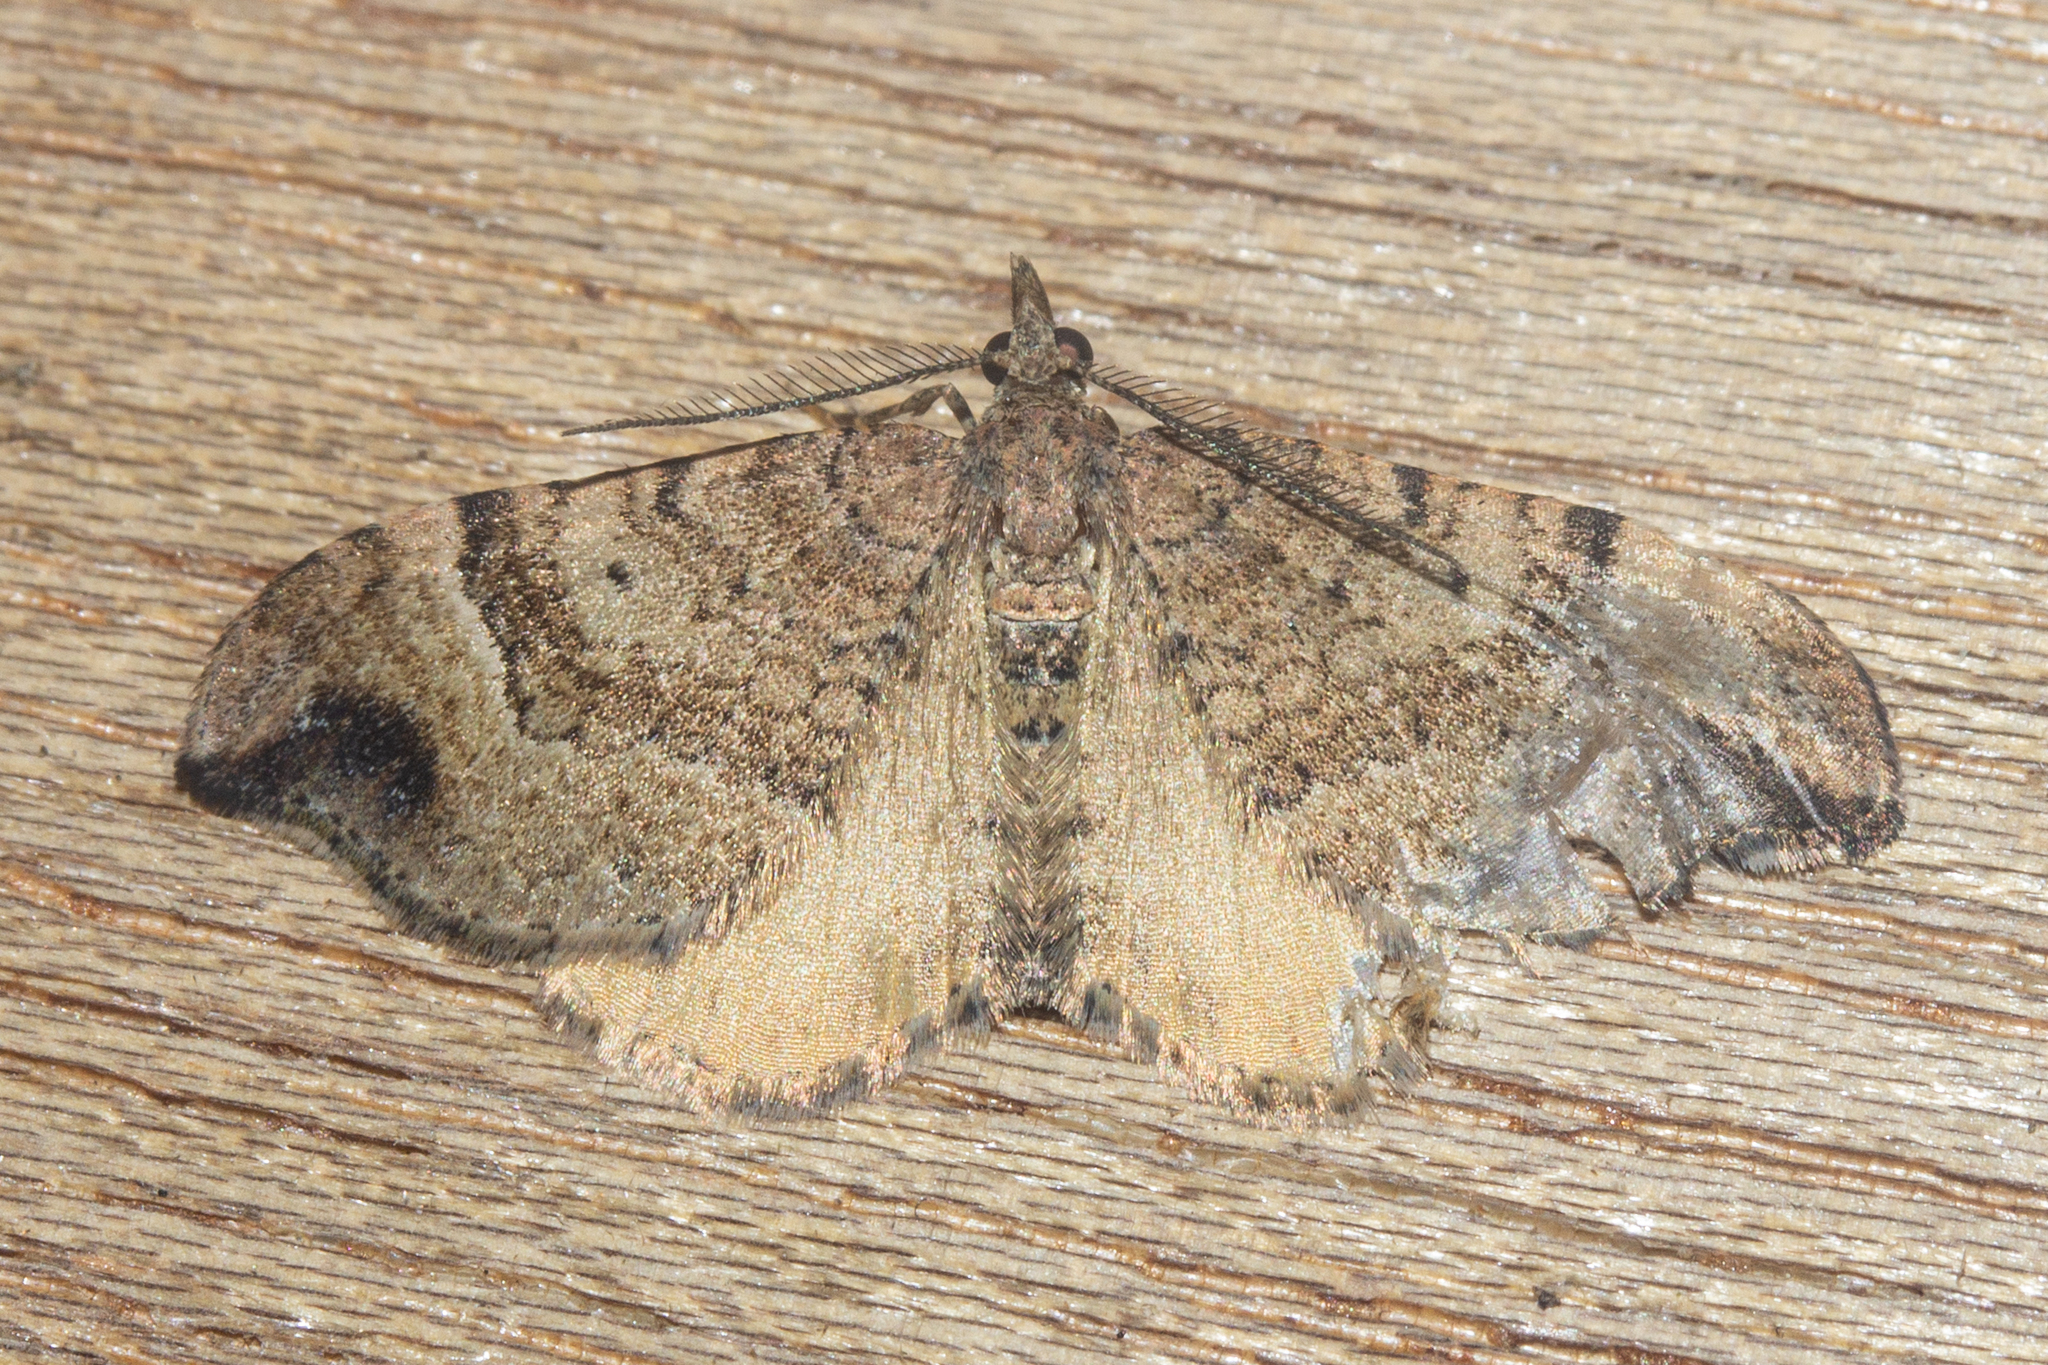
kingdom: Animalia
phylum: Arthropoda
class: Insecta
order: Lepidoptera
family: Geometridae
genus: Homodotis
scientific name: Homodotis megaspilata
